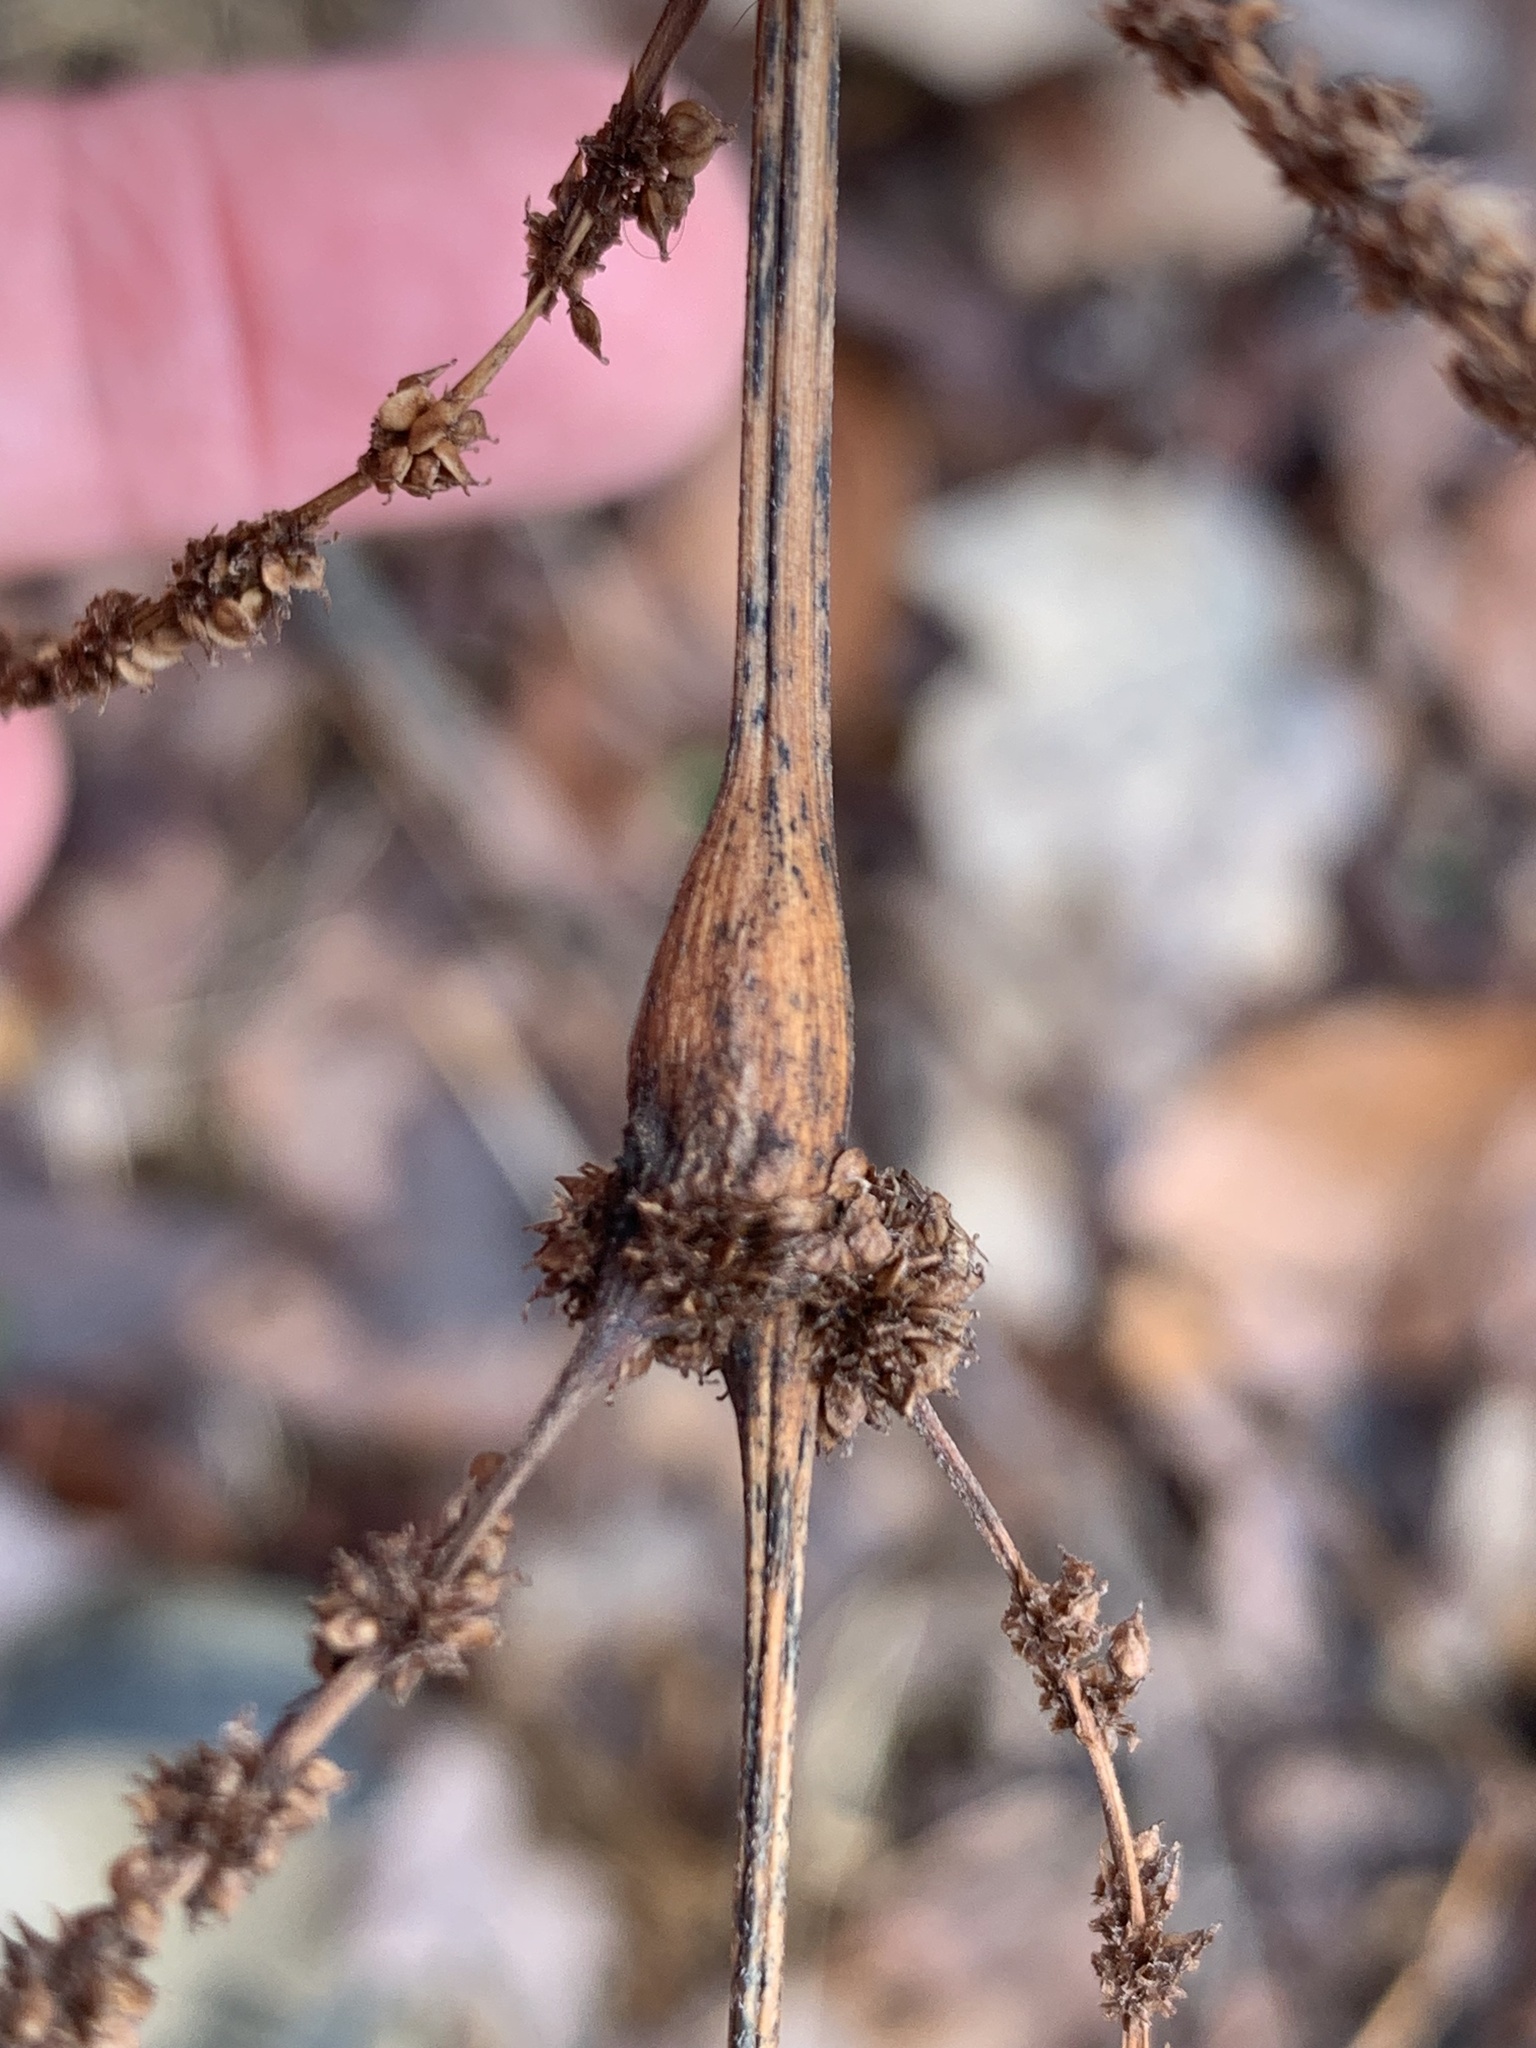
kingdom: Animalia
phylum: Arthropoda
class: Insecta
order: Diptera
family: Cecidomyiidae
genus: Neolasioptera
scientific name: Neolasioptera boehmeriae
